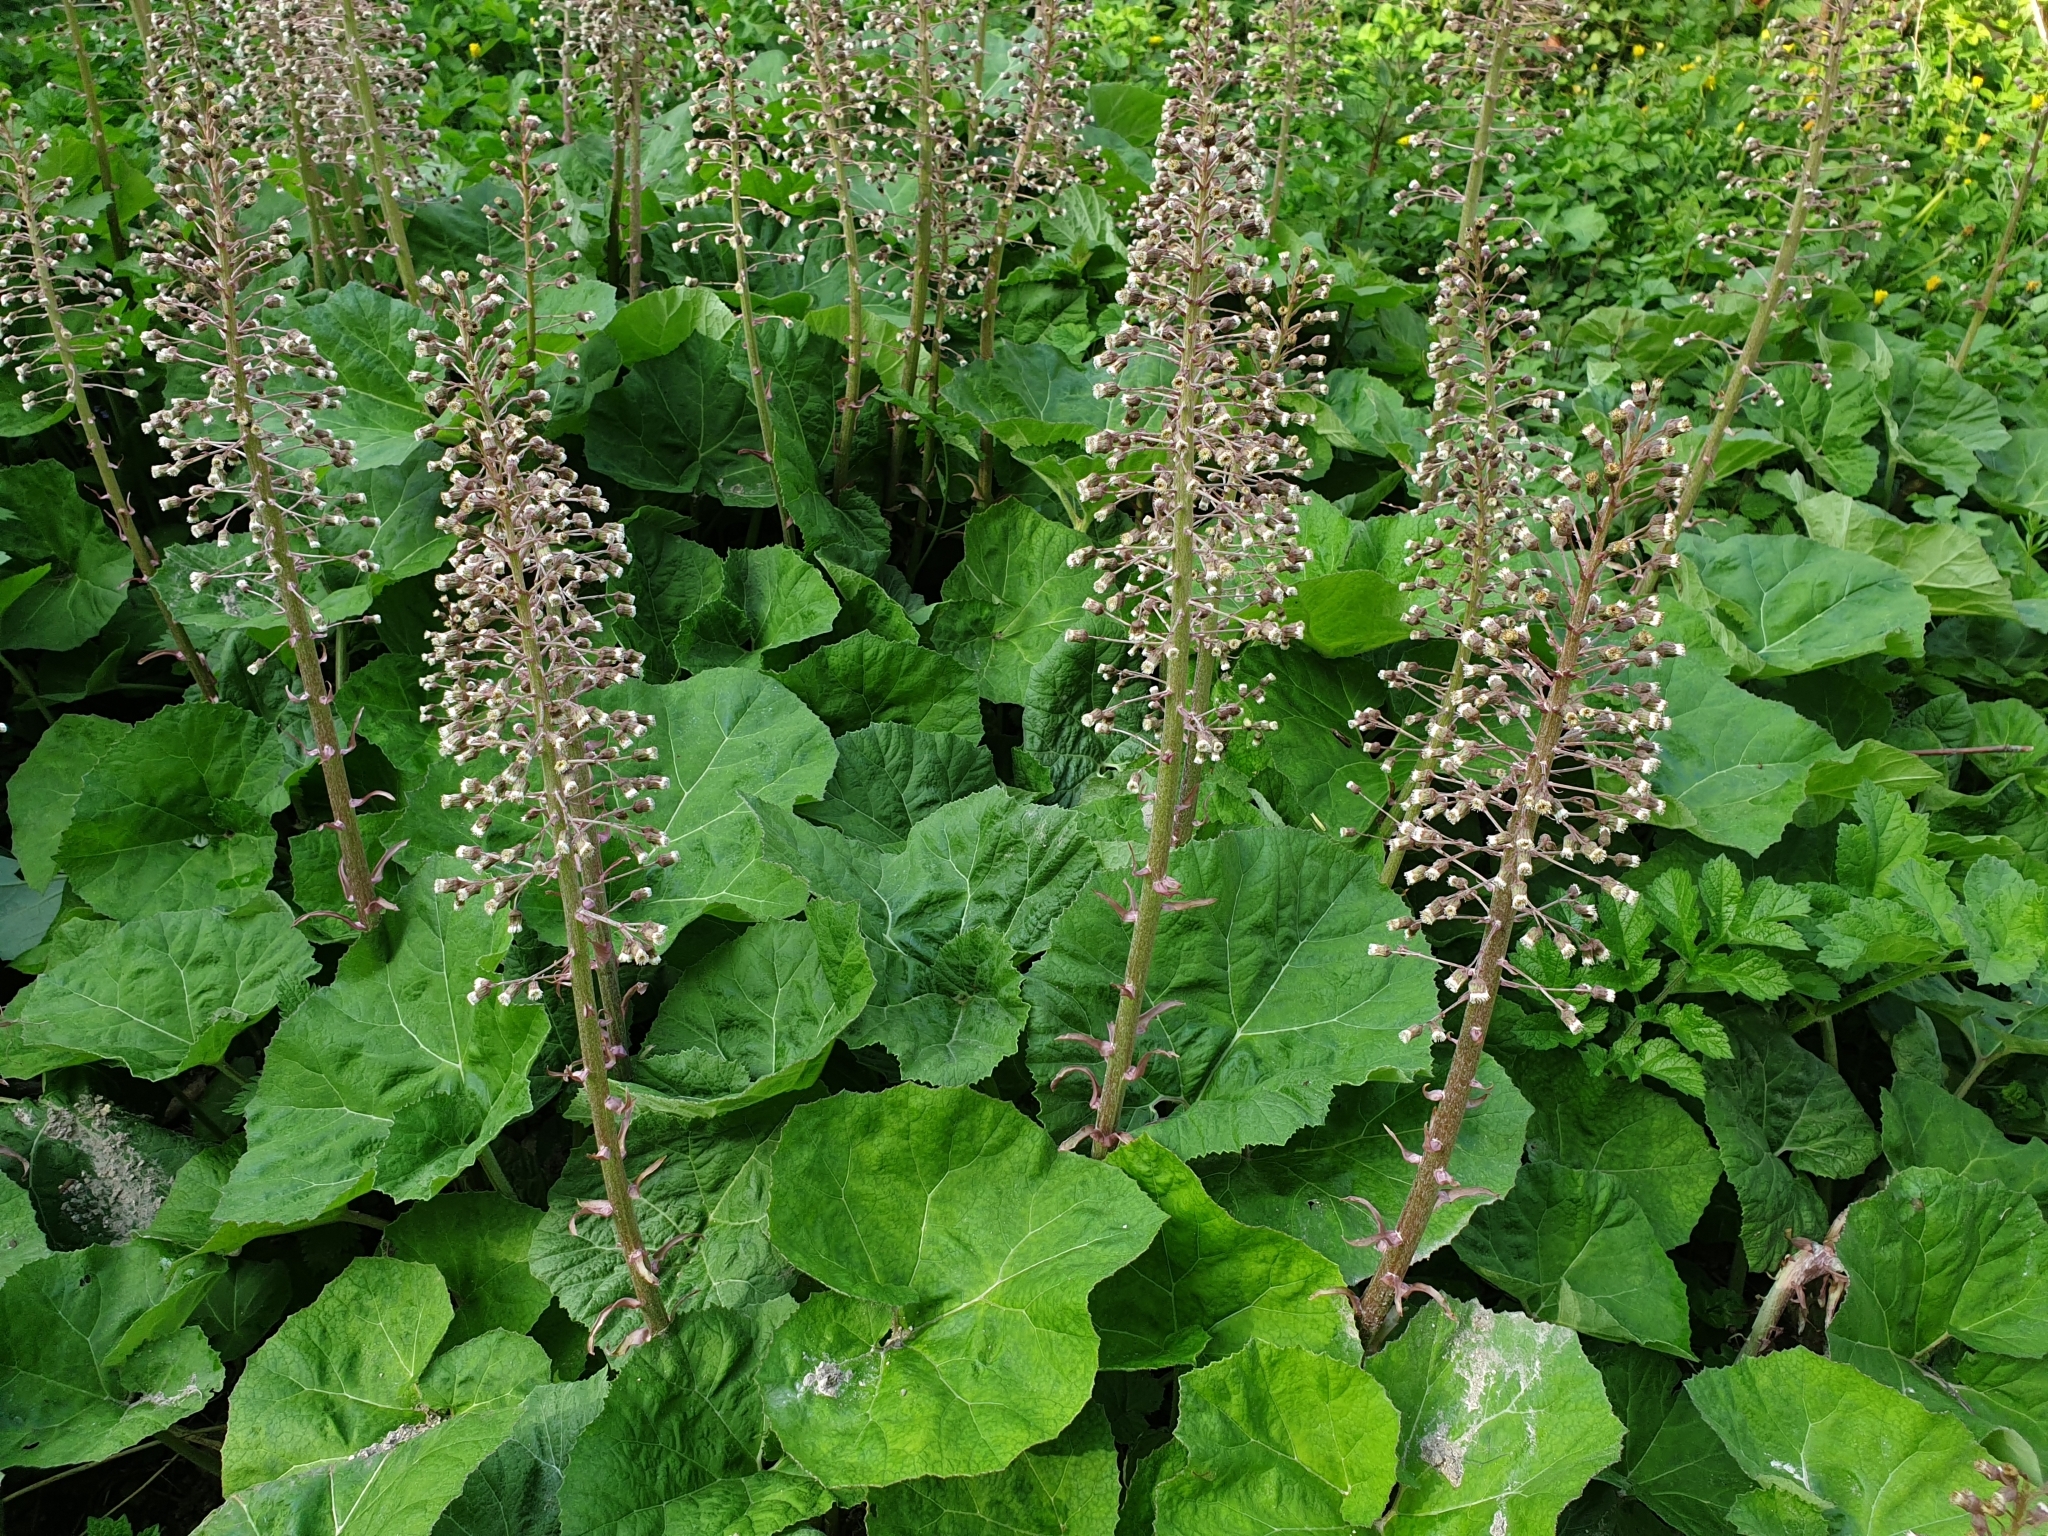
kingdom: Plantae
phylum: Tracheophyta
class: Magnoliopsida
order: Asterales
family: Asteraceae
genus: Petasites
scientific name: Petasites hybridus
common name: Butterbur
